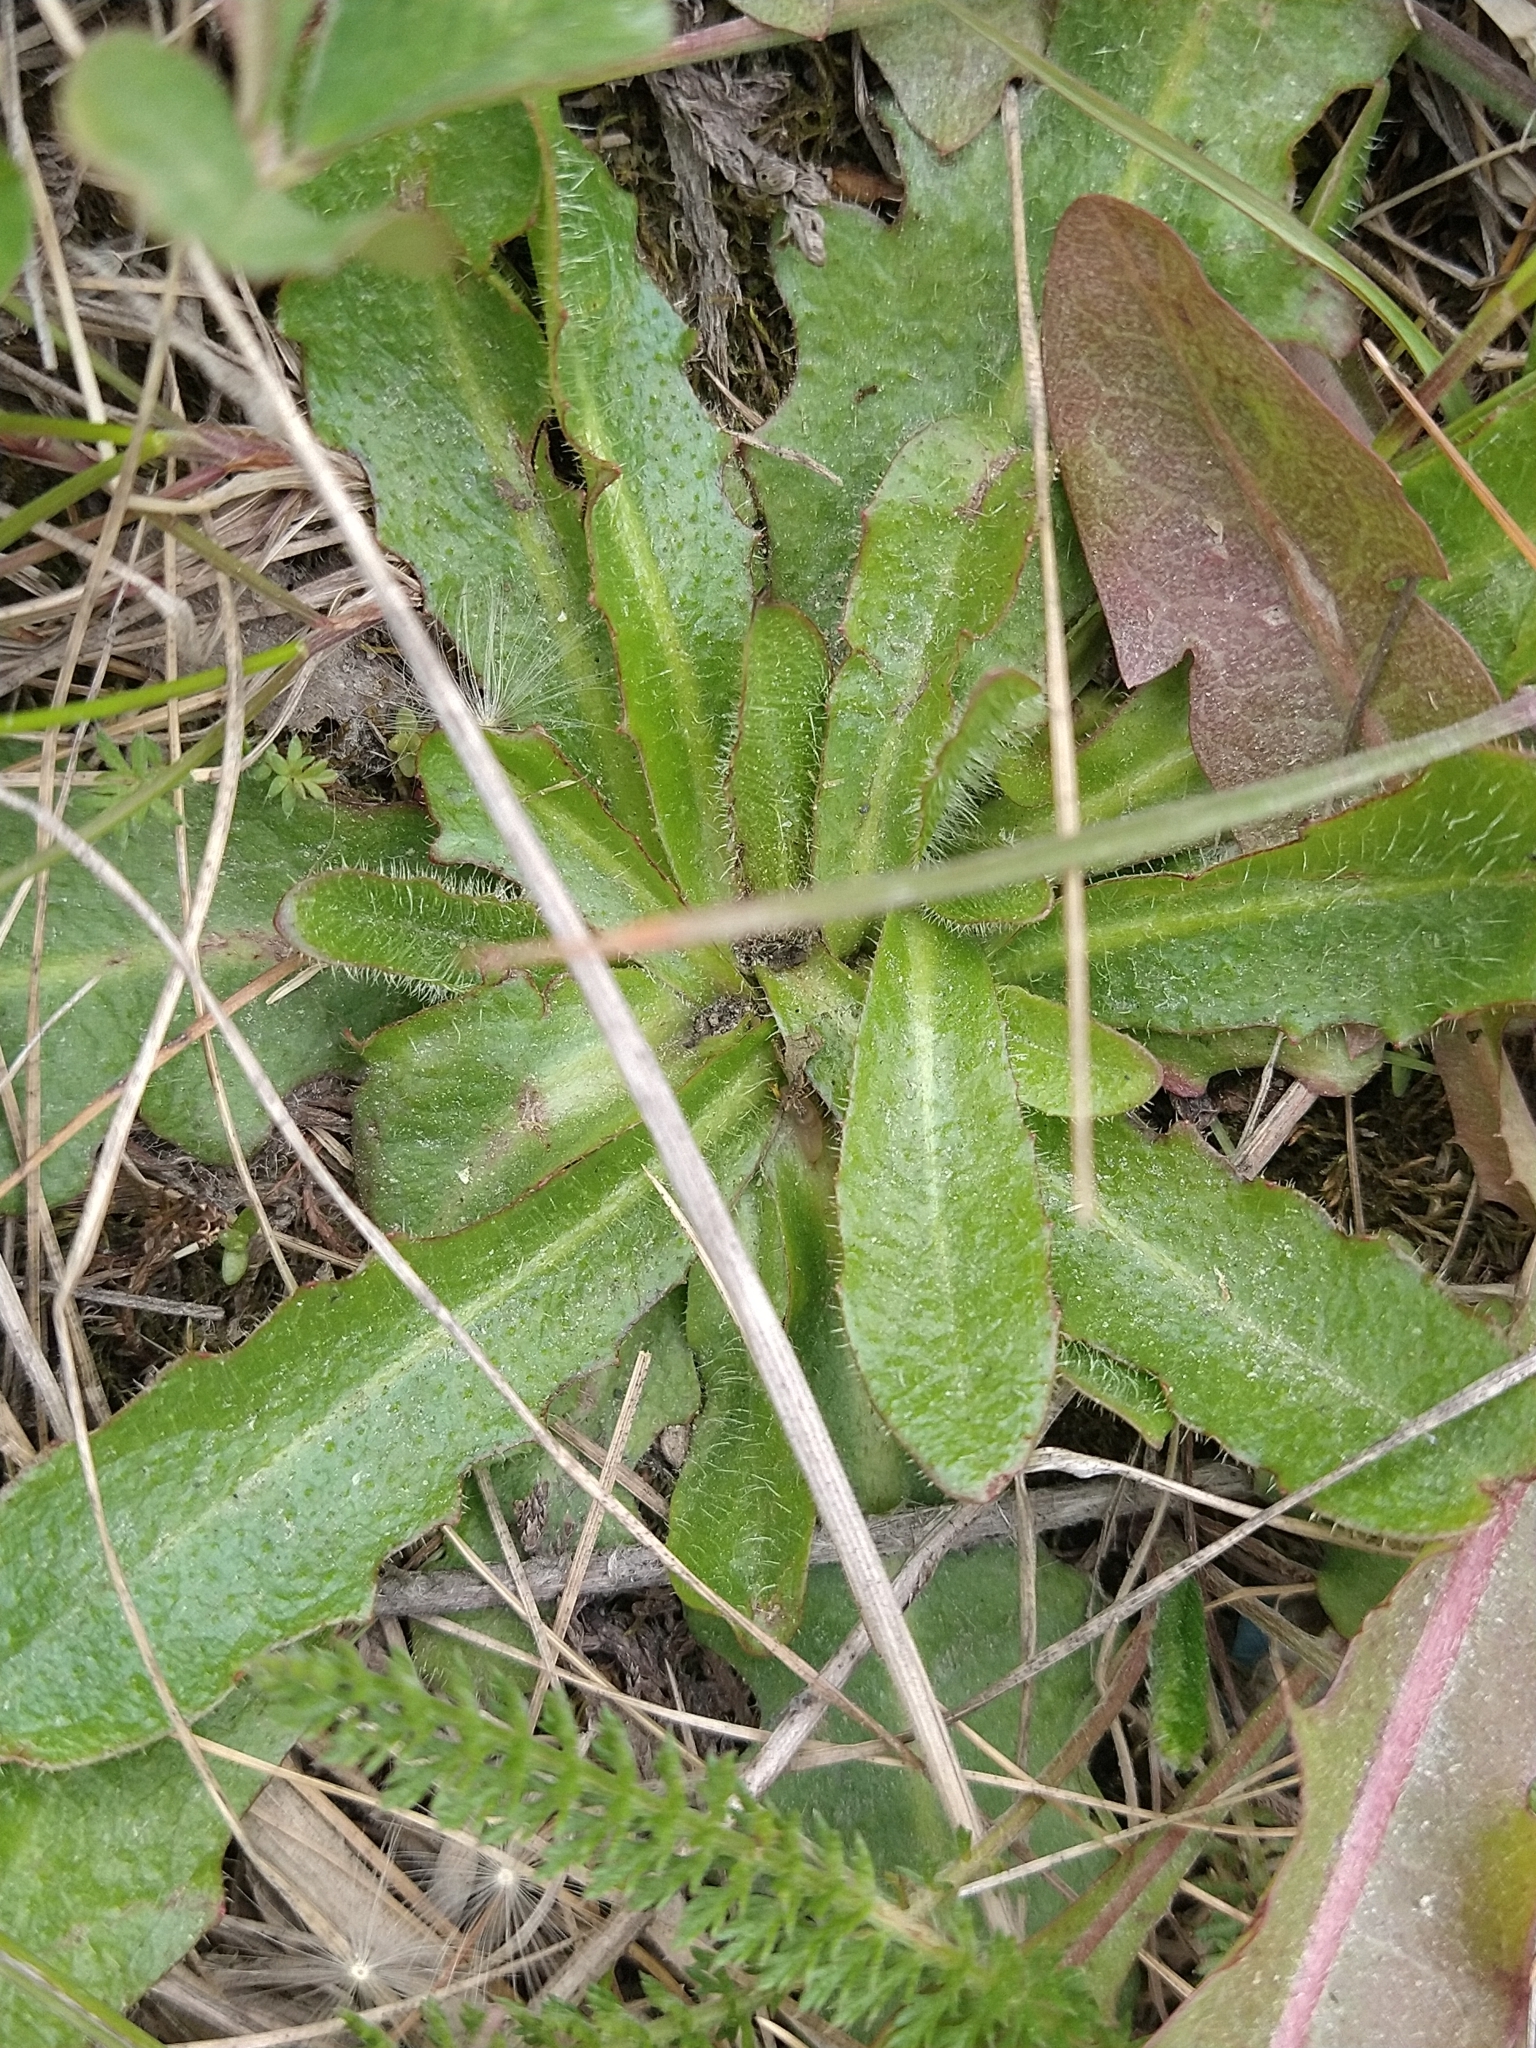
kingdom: Plantae
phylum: Tracheophyta
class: Magnoliopsida
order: Asterales
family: Asteraceae
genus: Hypochaeris
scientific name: Hypochaeris radicata
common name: Flatweed
